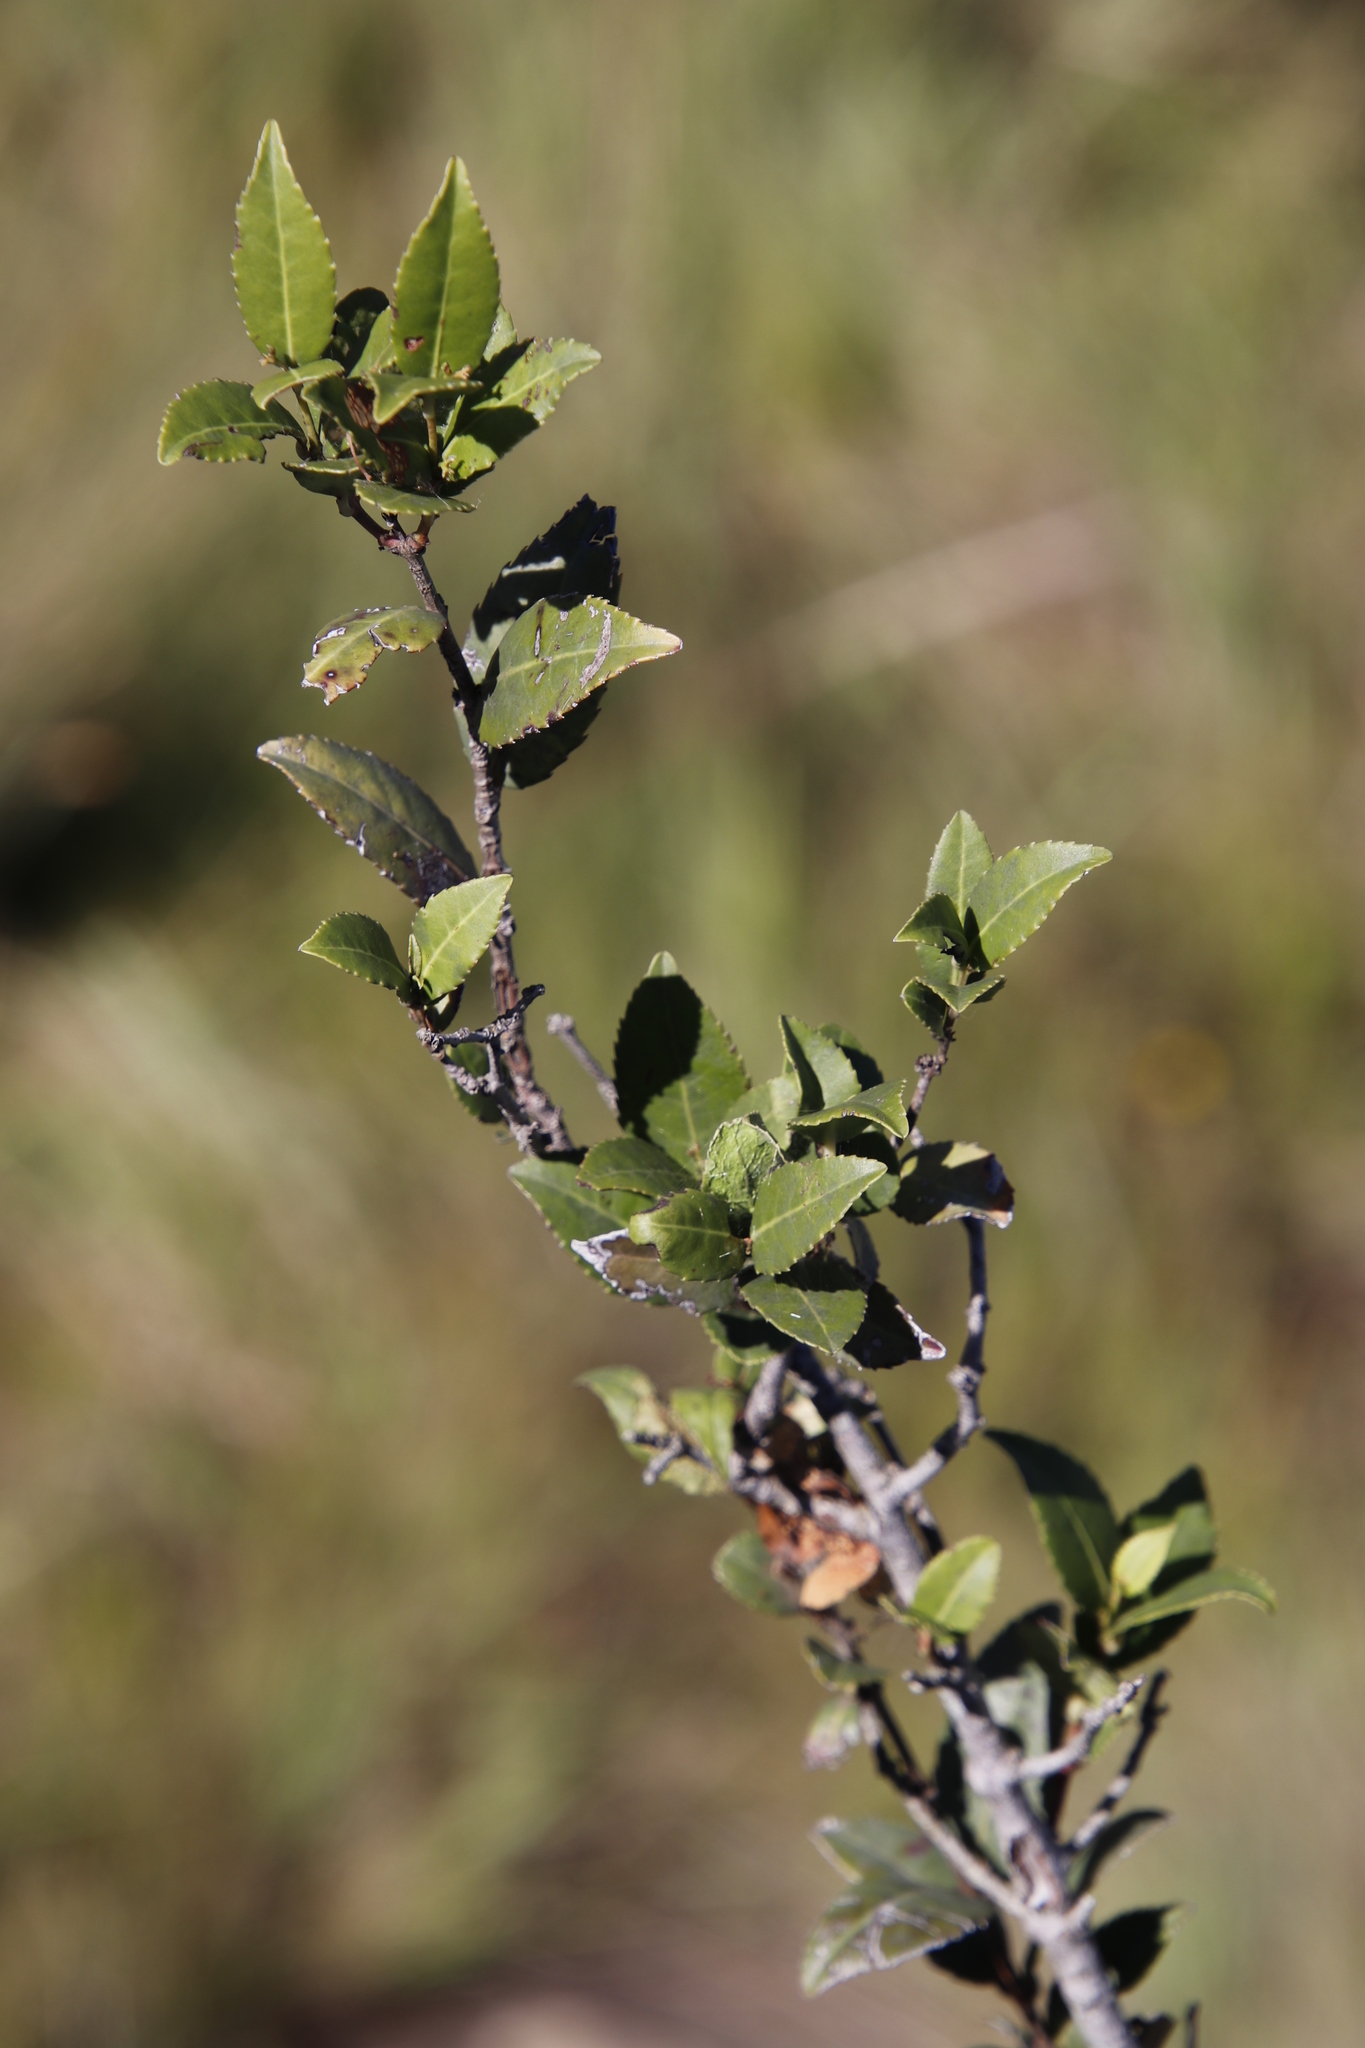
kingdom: Plantae
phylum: Tracheophyta
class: Magnoliopsida
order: Malpighiales
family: Salicaceae
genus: Scolopia
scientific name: Scolopia flanaganii
